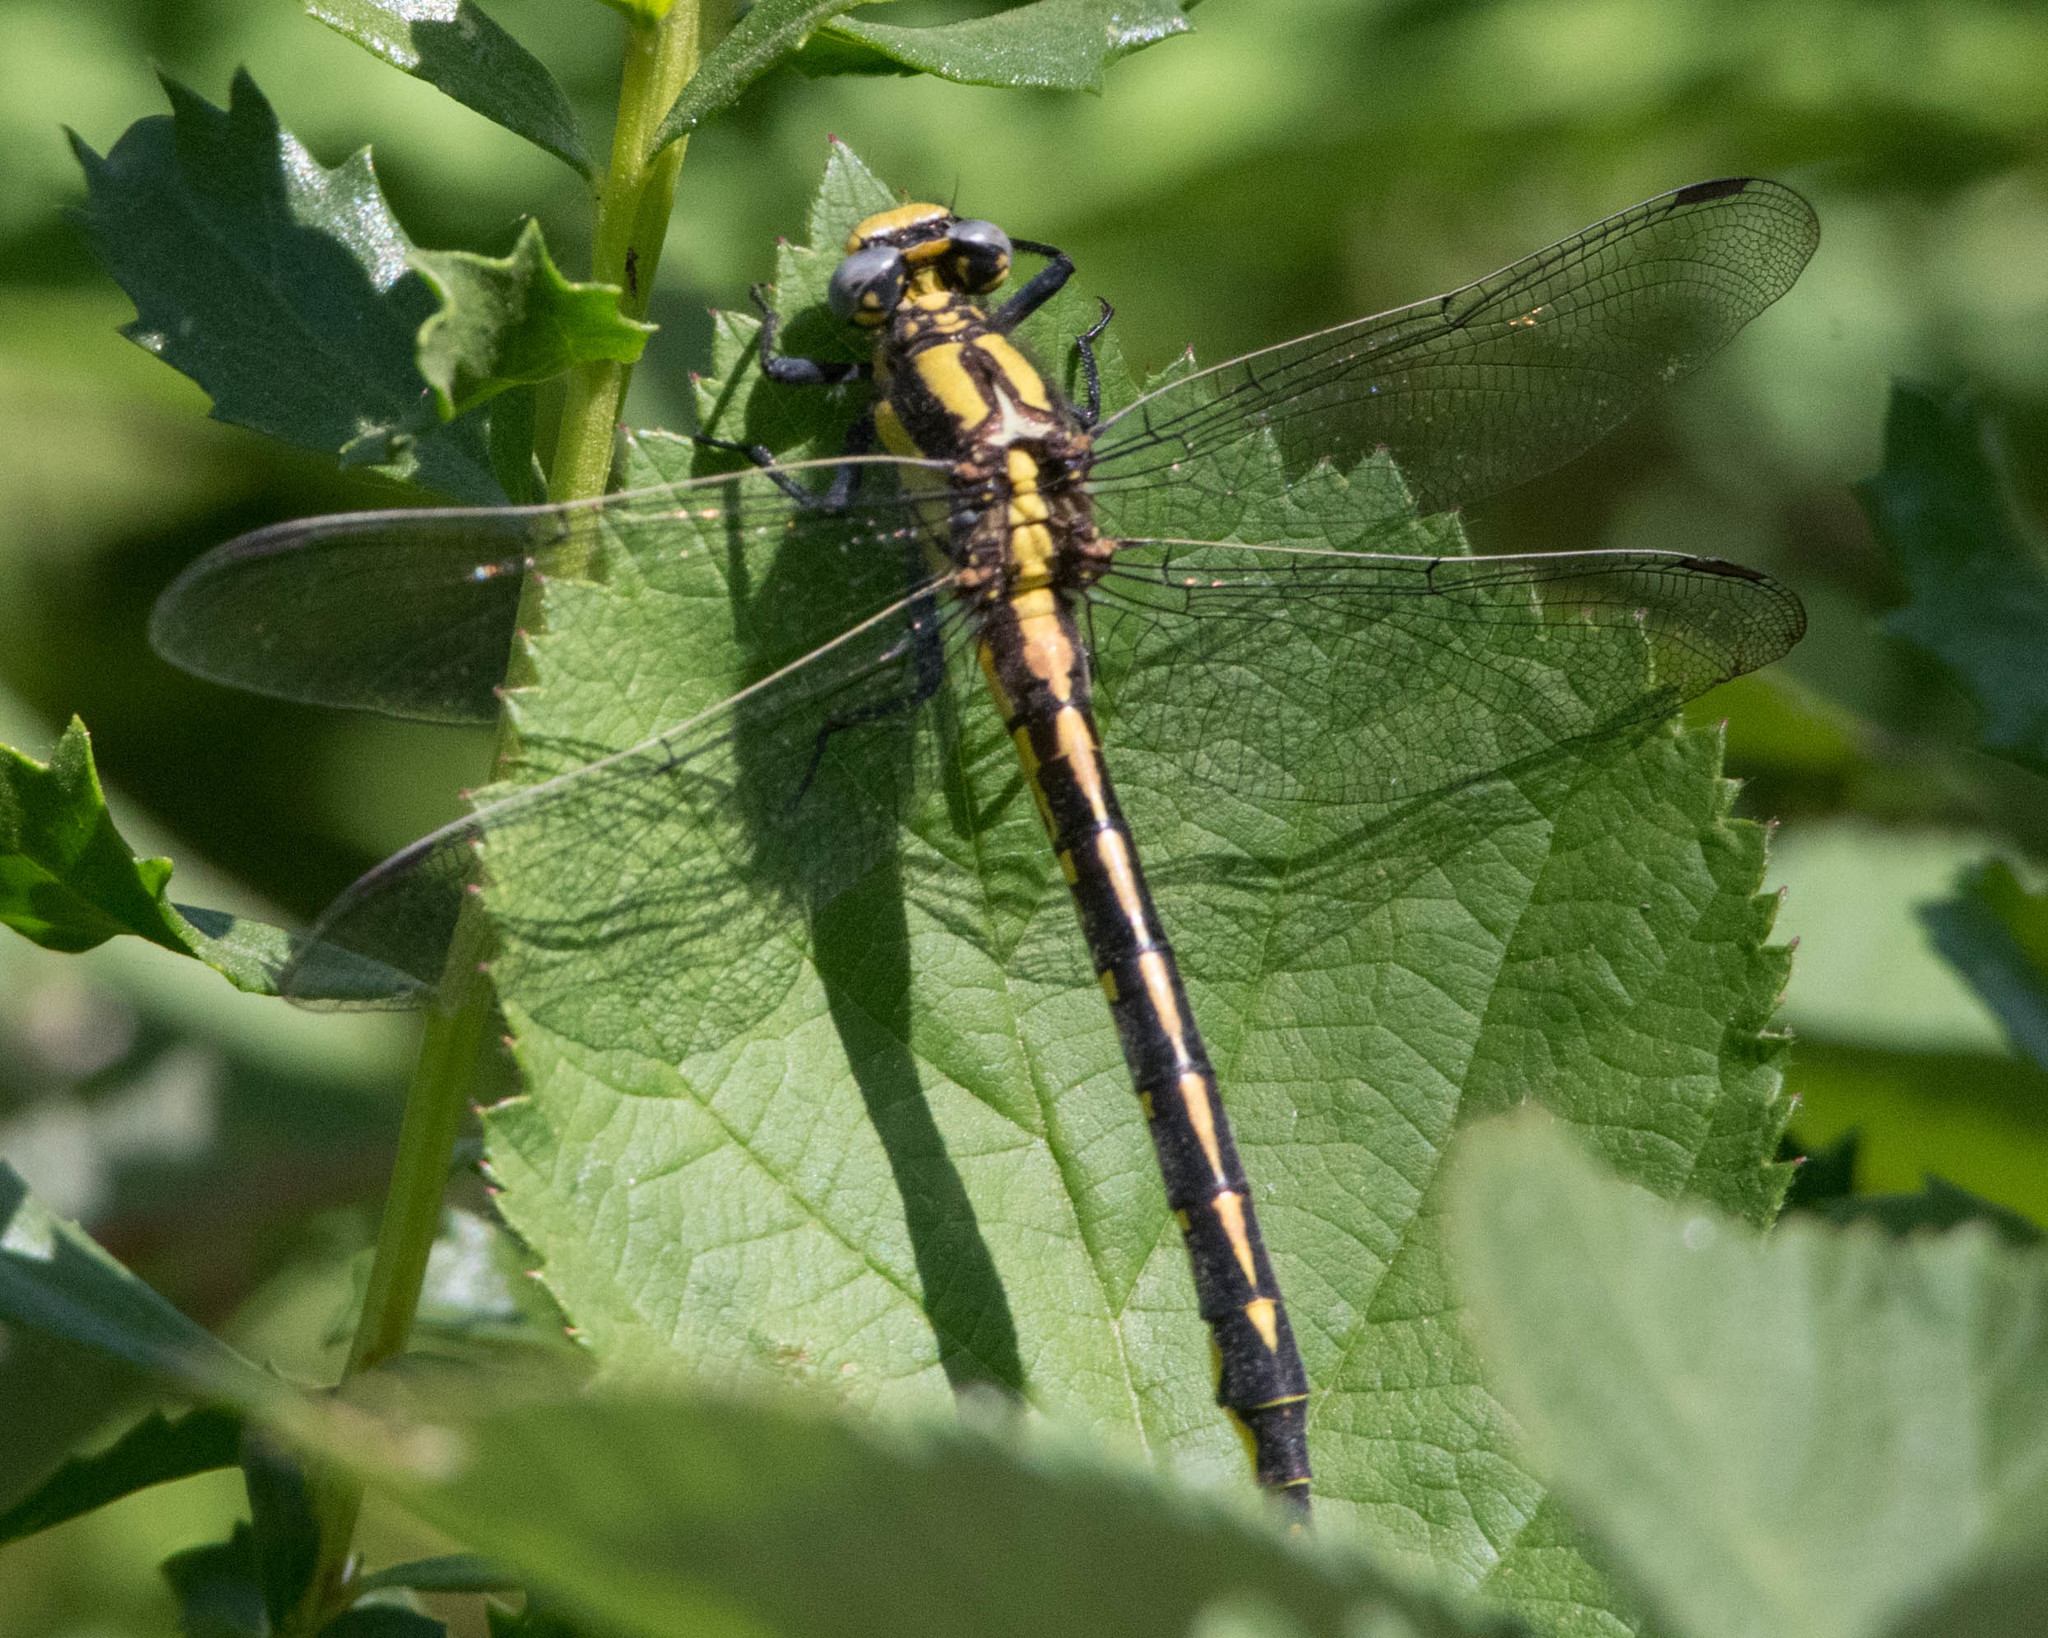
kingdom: Animalia
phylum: Arthropoda
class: Insecta
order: Odonata
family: Gomphidae
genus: Phanogomphus
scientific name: Phanogomphus kurilis
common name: Pacific clubtail
